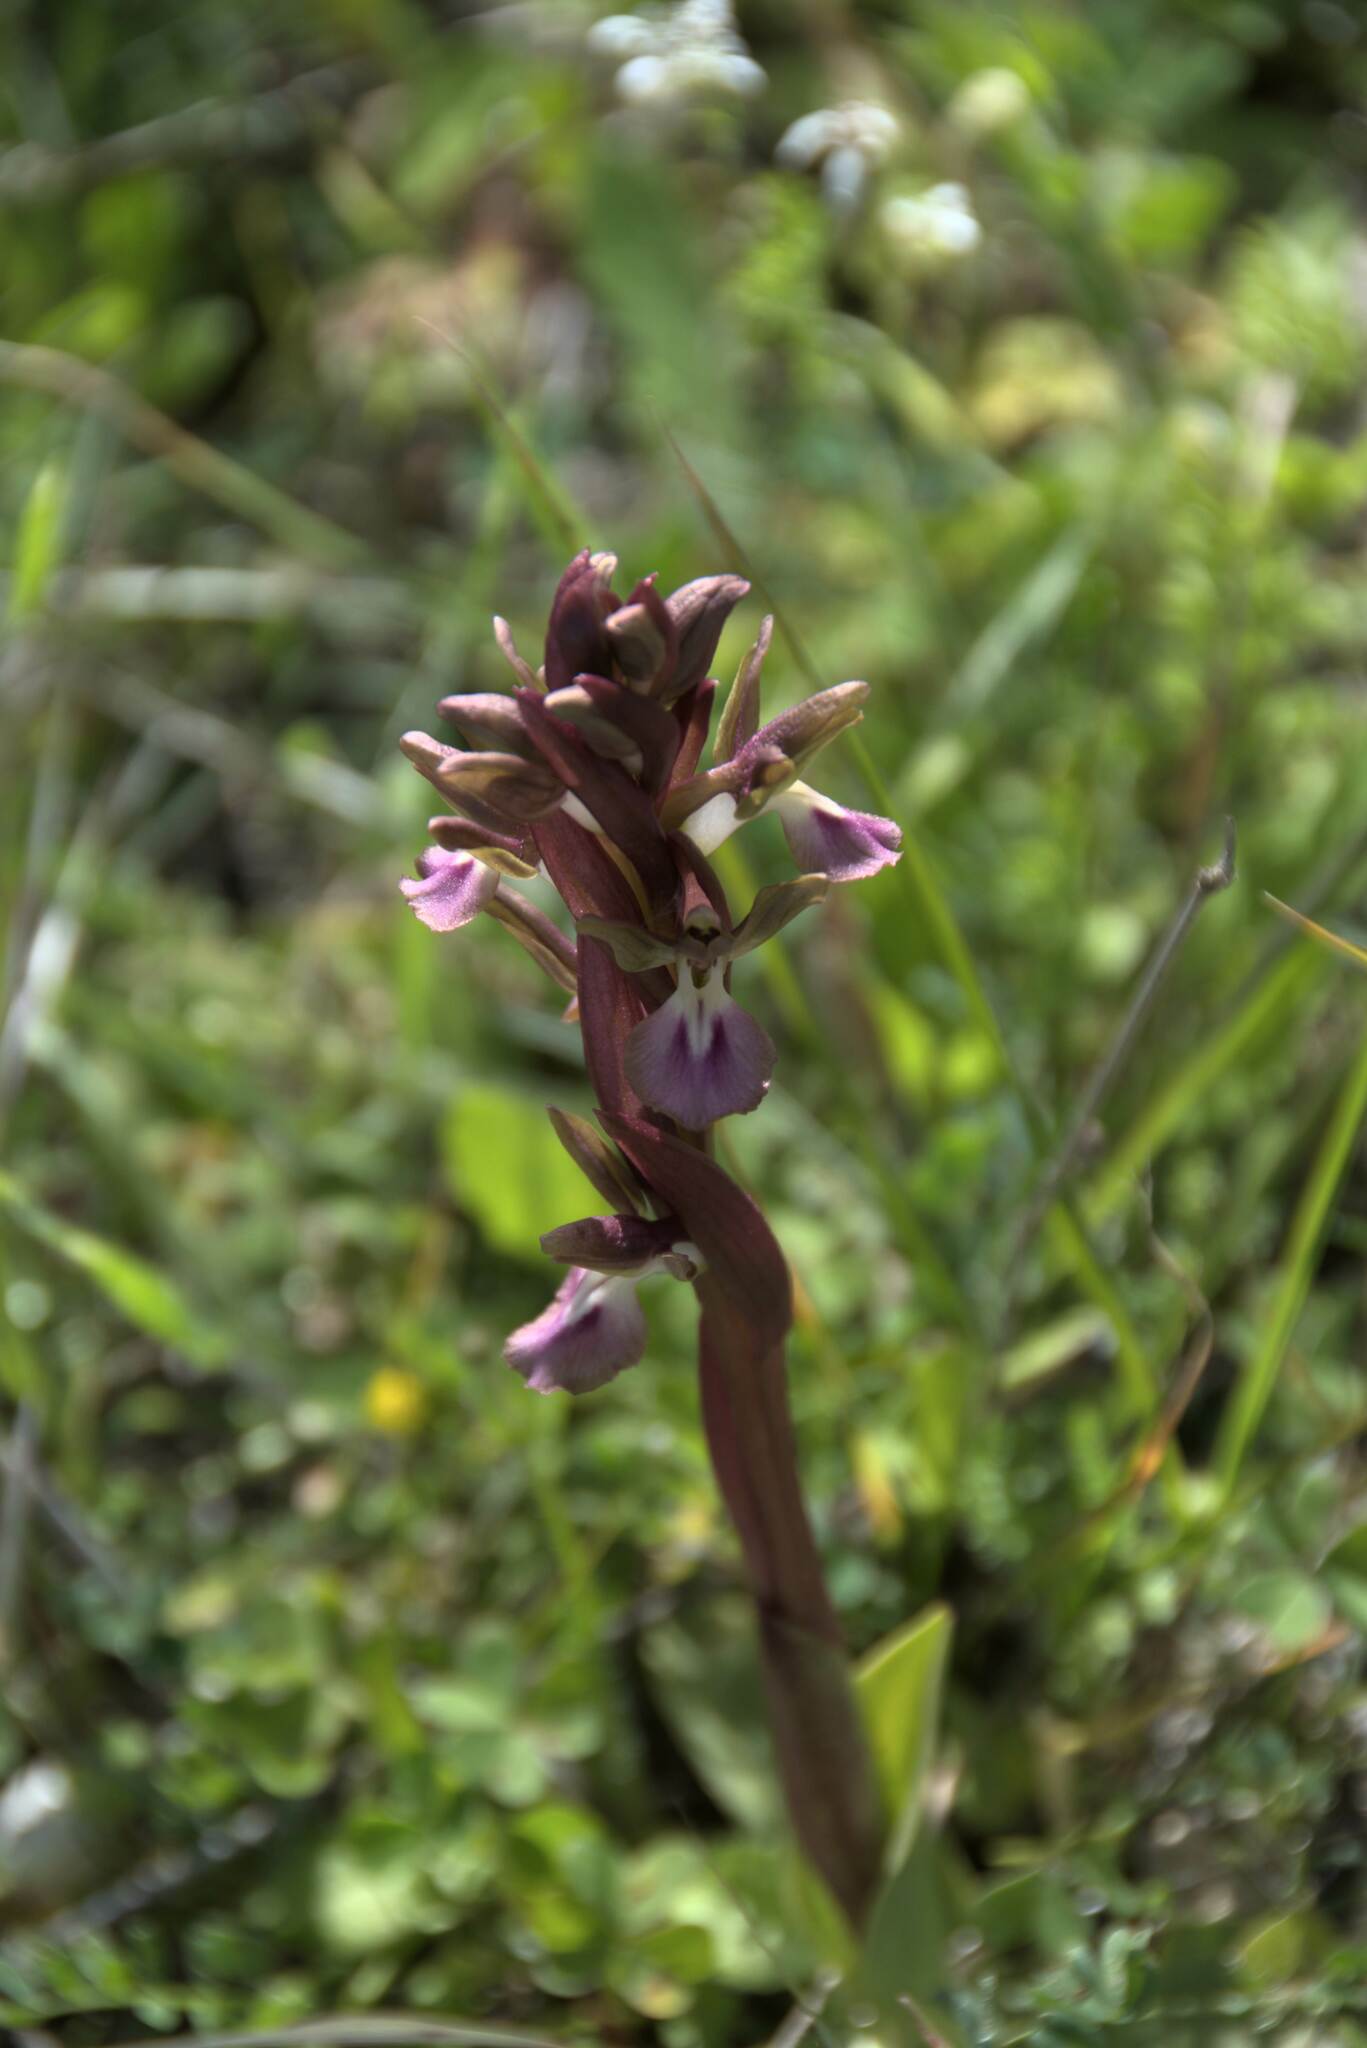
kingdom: Plantae
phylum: Tracheophyta
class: Liliopsida
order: Asparagales
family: Orchidaceae
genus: Anacamptis
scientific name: Anacamptis collina
